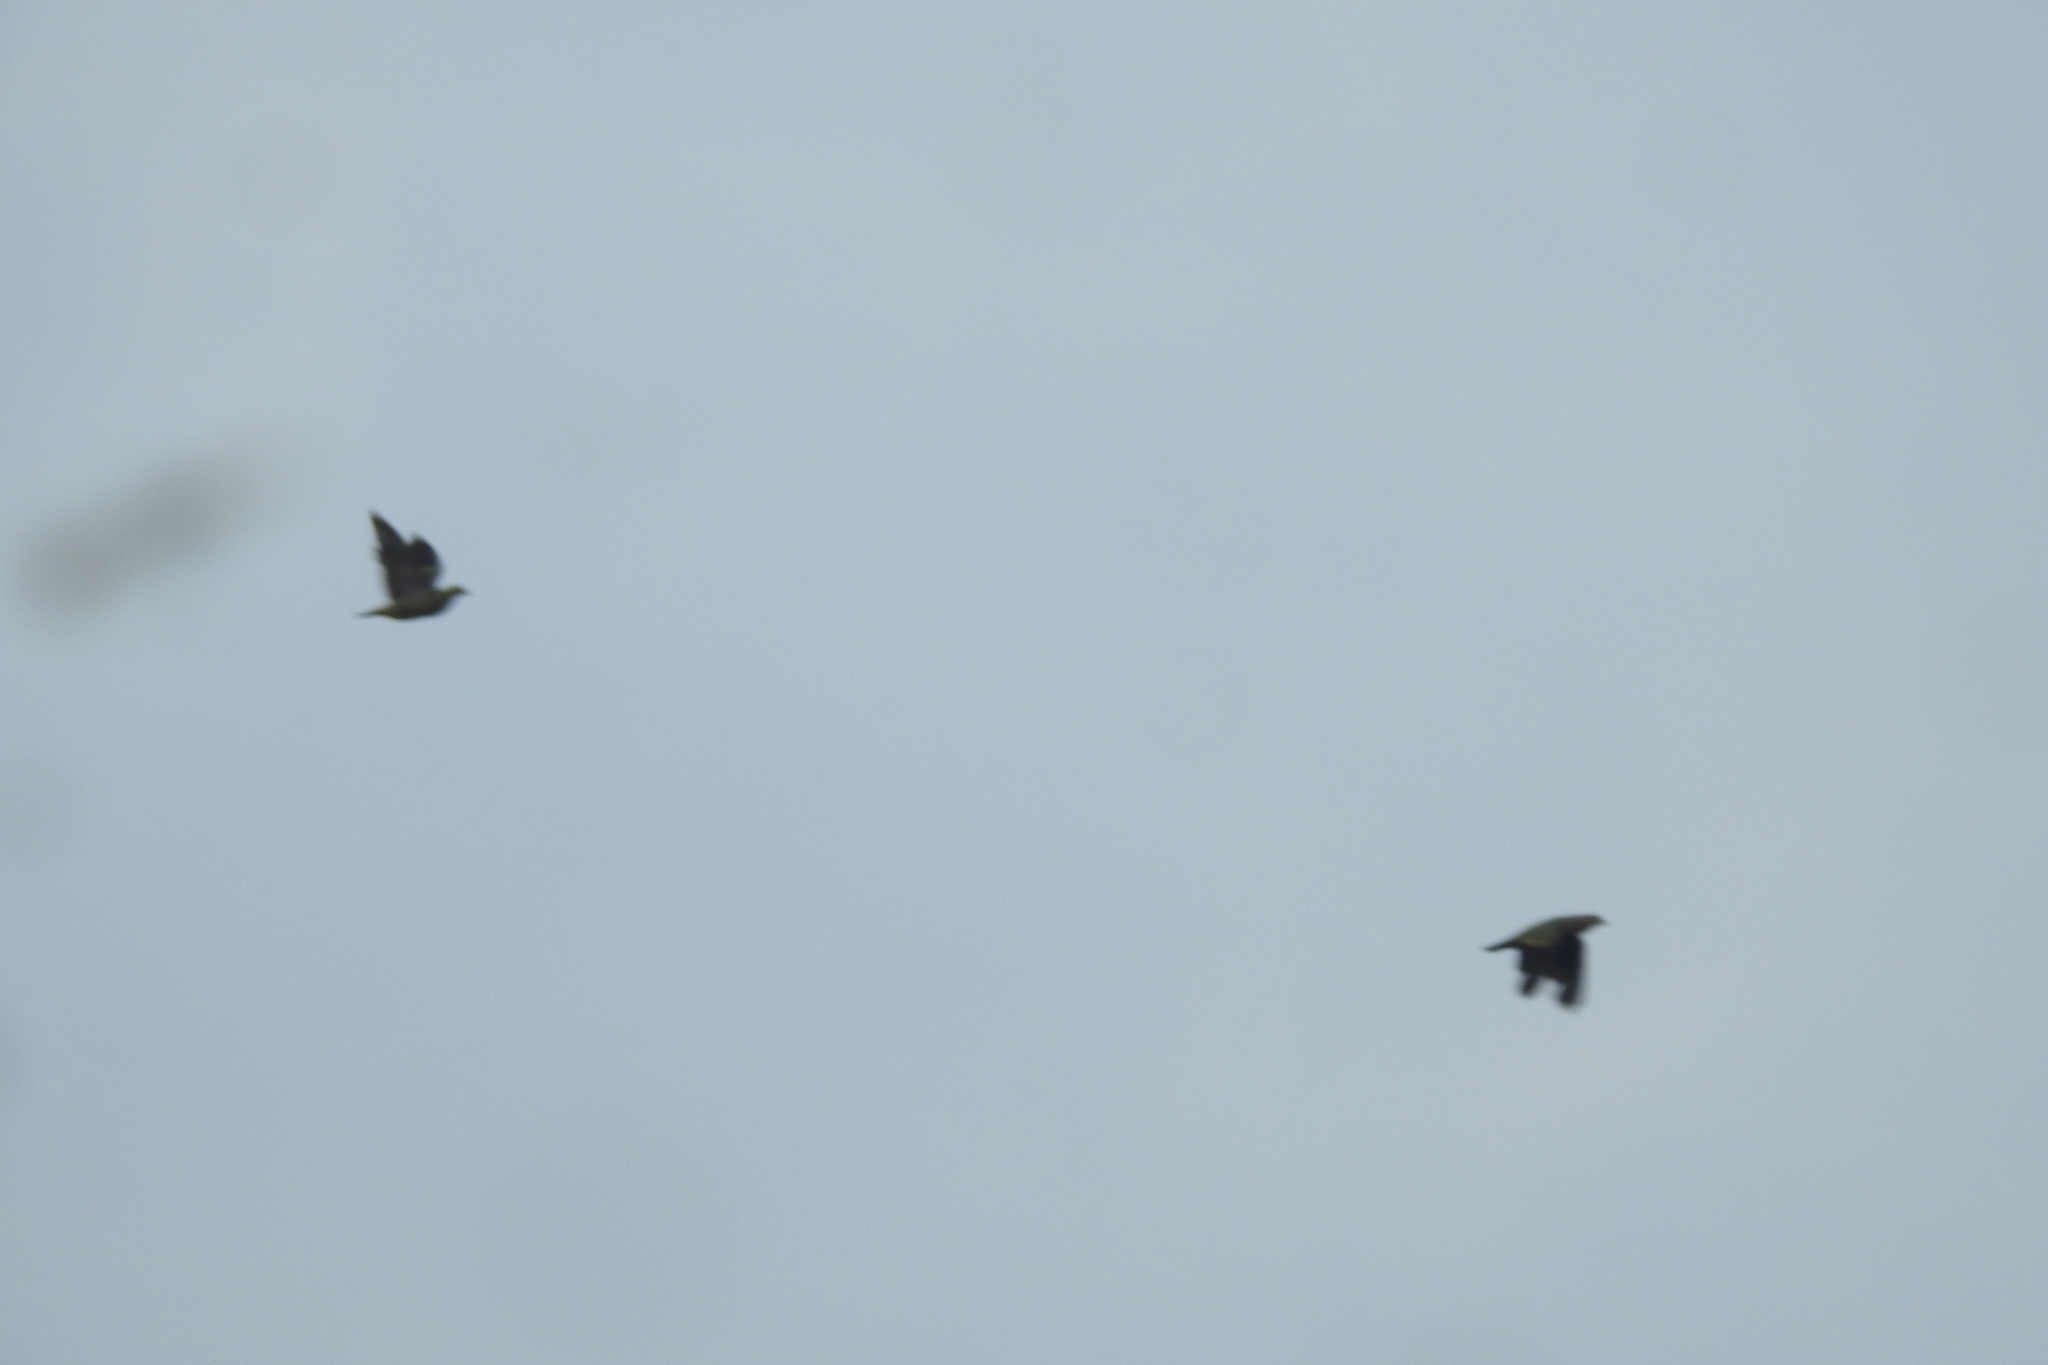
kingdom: Animalia
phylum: Chordata
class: Aves
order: Columbiformes
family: Columbidae
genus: Treron
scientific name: Treron vernans
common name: Pink-necked green pigeon
